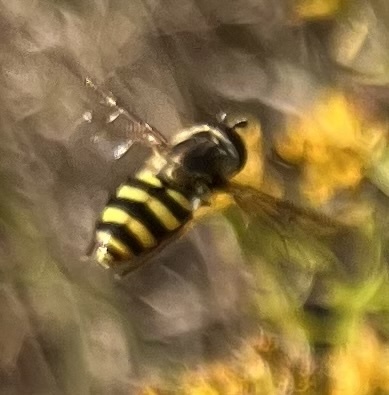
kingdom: Animalia
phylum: Arthropoda
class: Insecta
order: Diptera
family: Syrphidae
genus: Eupeodes
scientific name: Eupeodes
